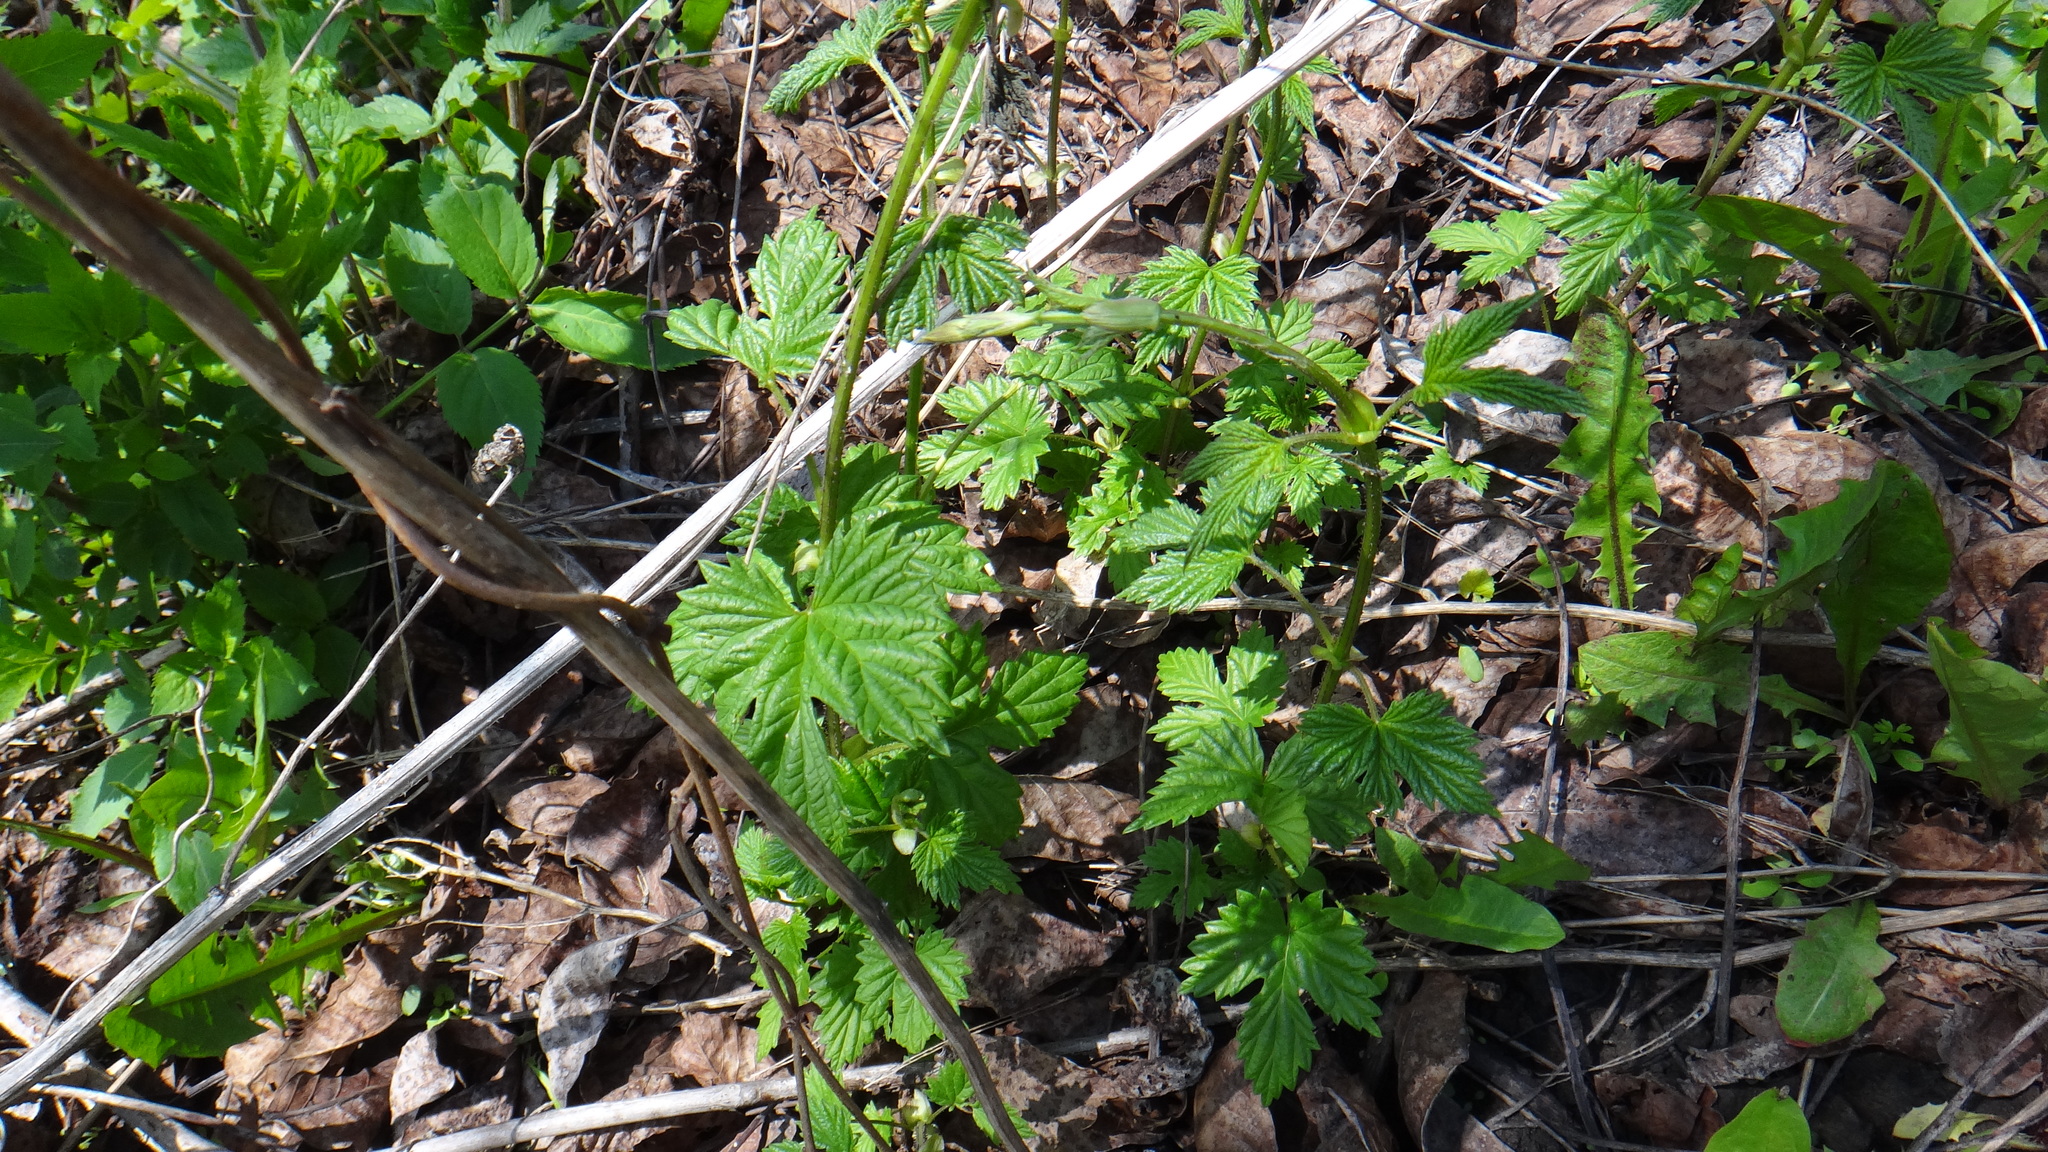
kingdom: Plantae
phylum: Tracheophyta
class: Magnoliopsida
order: Rosales
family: Cannabaceae
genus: Humulus
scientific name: Humulus lupulus
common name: Hop
